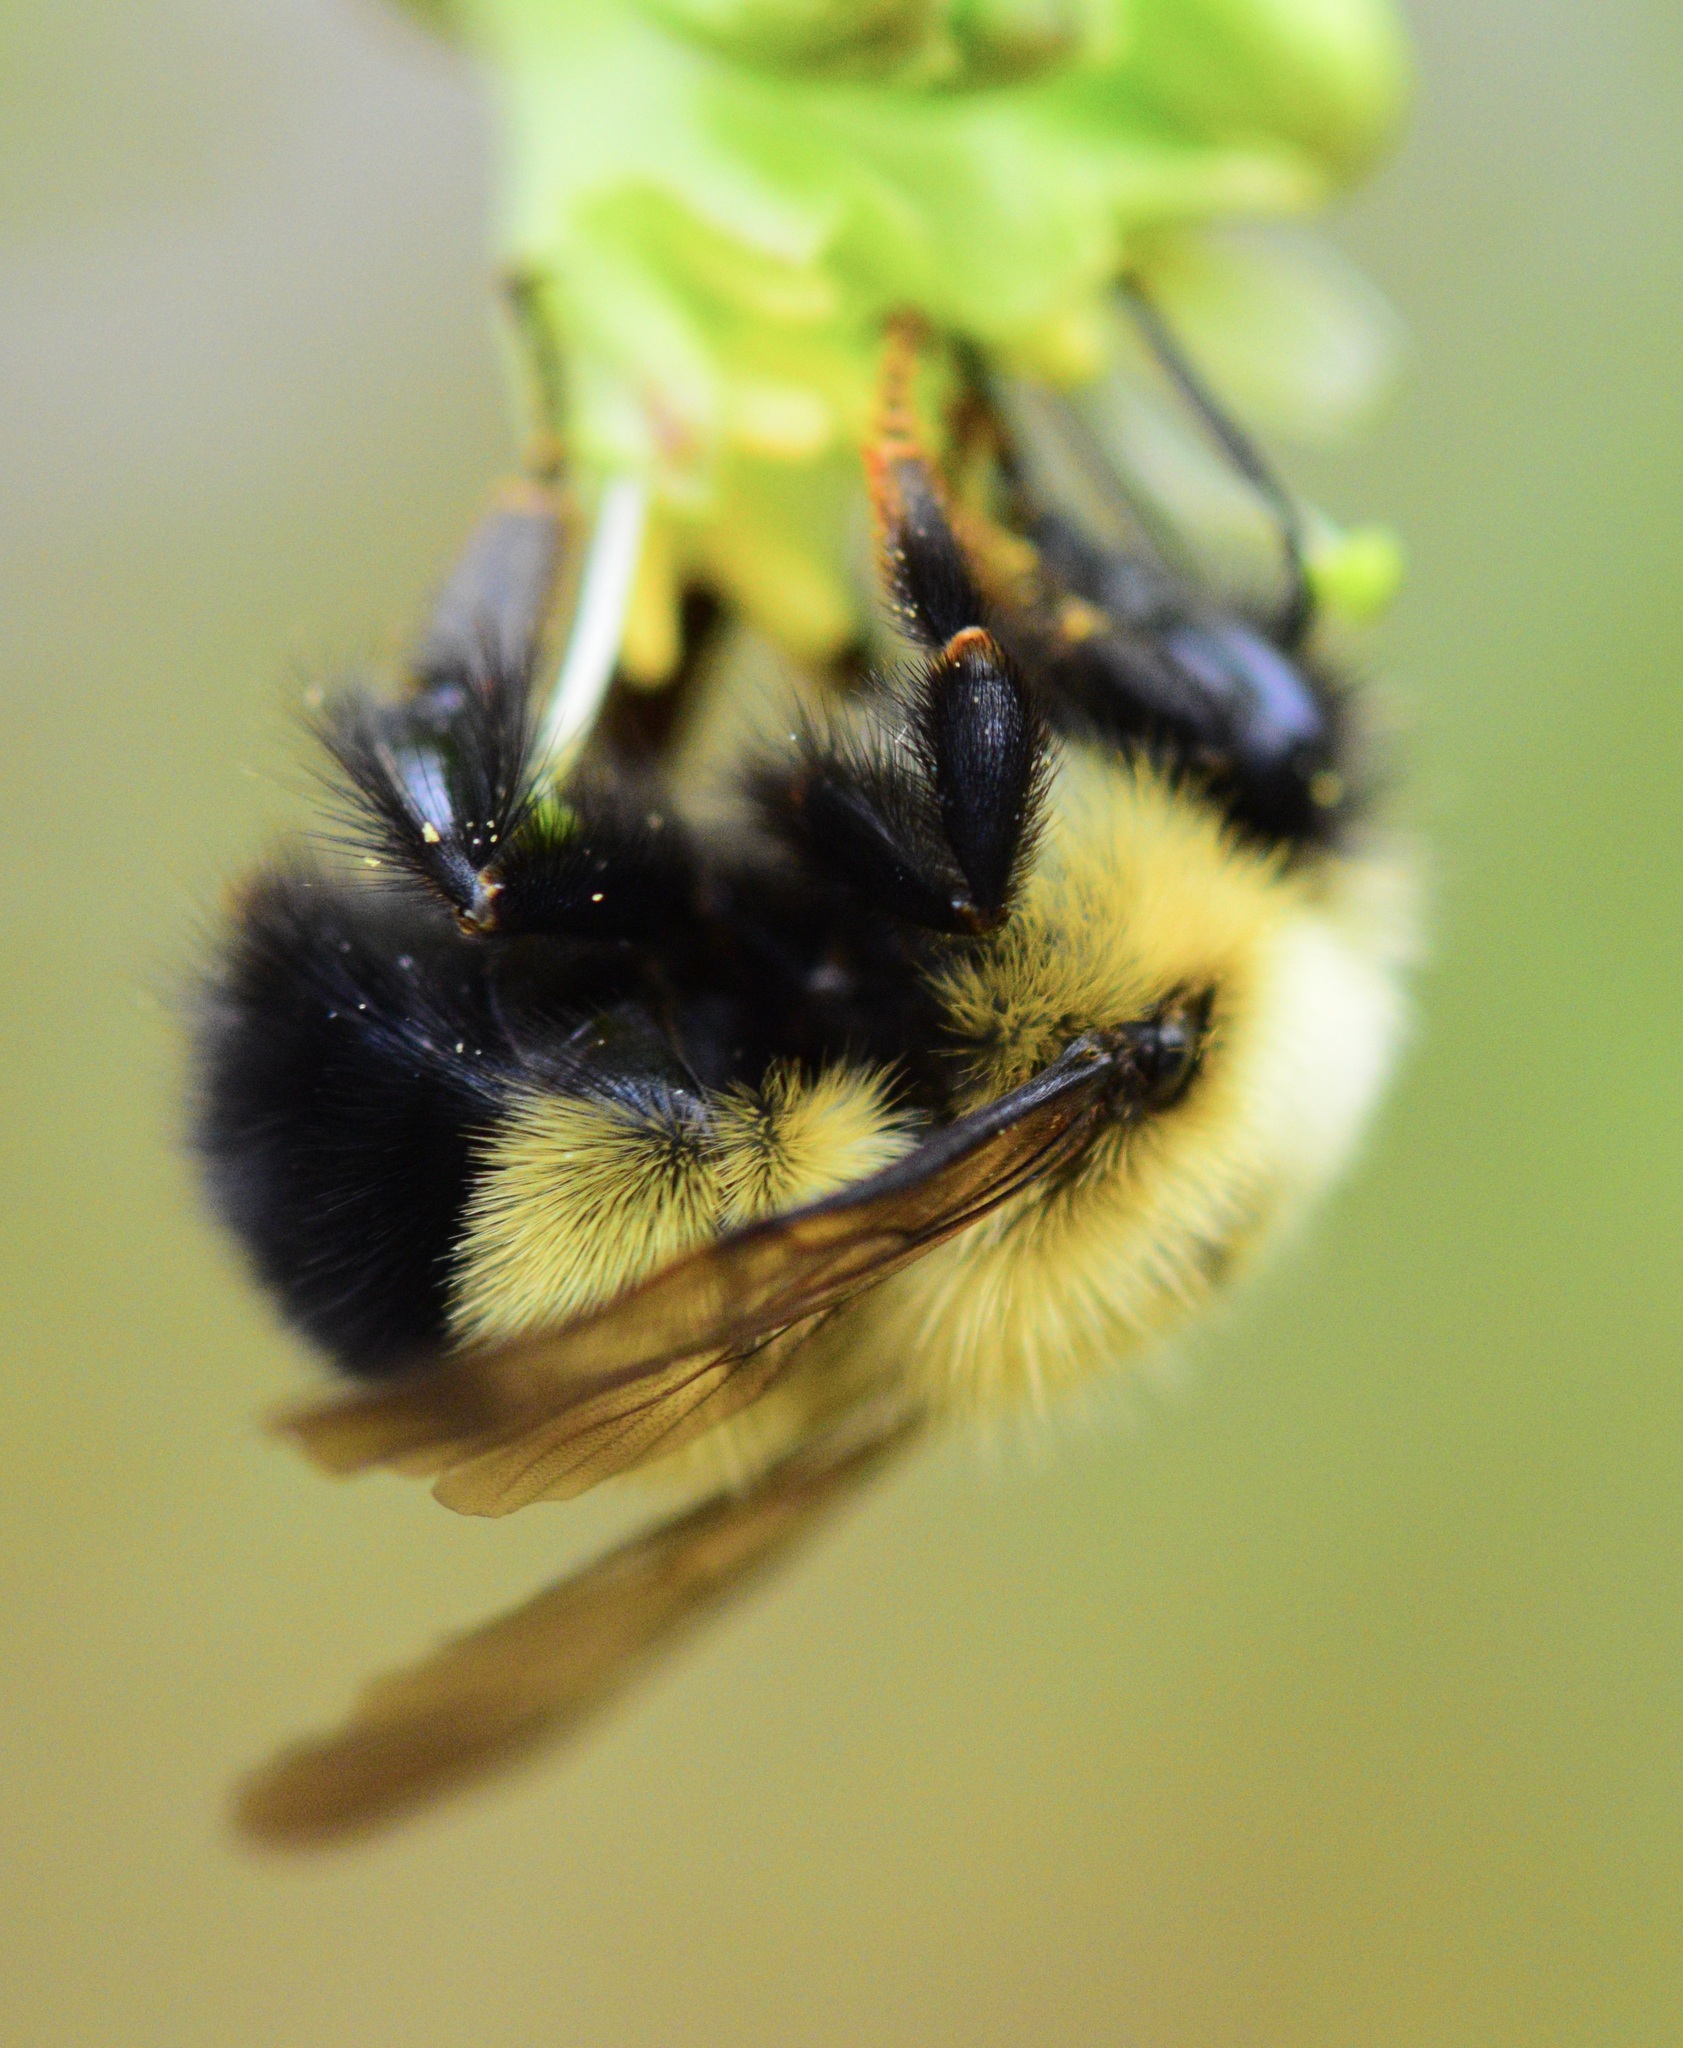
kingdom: Animalia
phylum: Arthropoda
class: Insecta
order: Hymenoptera
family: Apidae
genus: Bombus
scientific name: Bombus perplexus
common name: Confusing bumble bee
